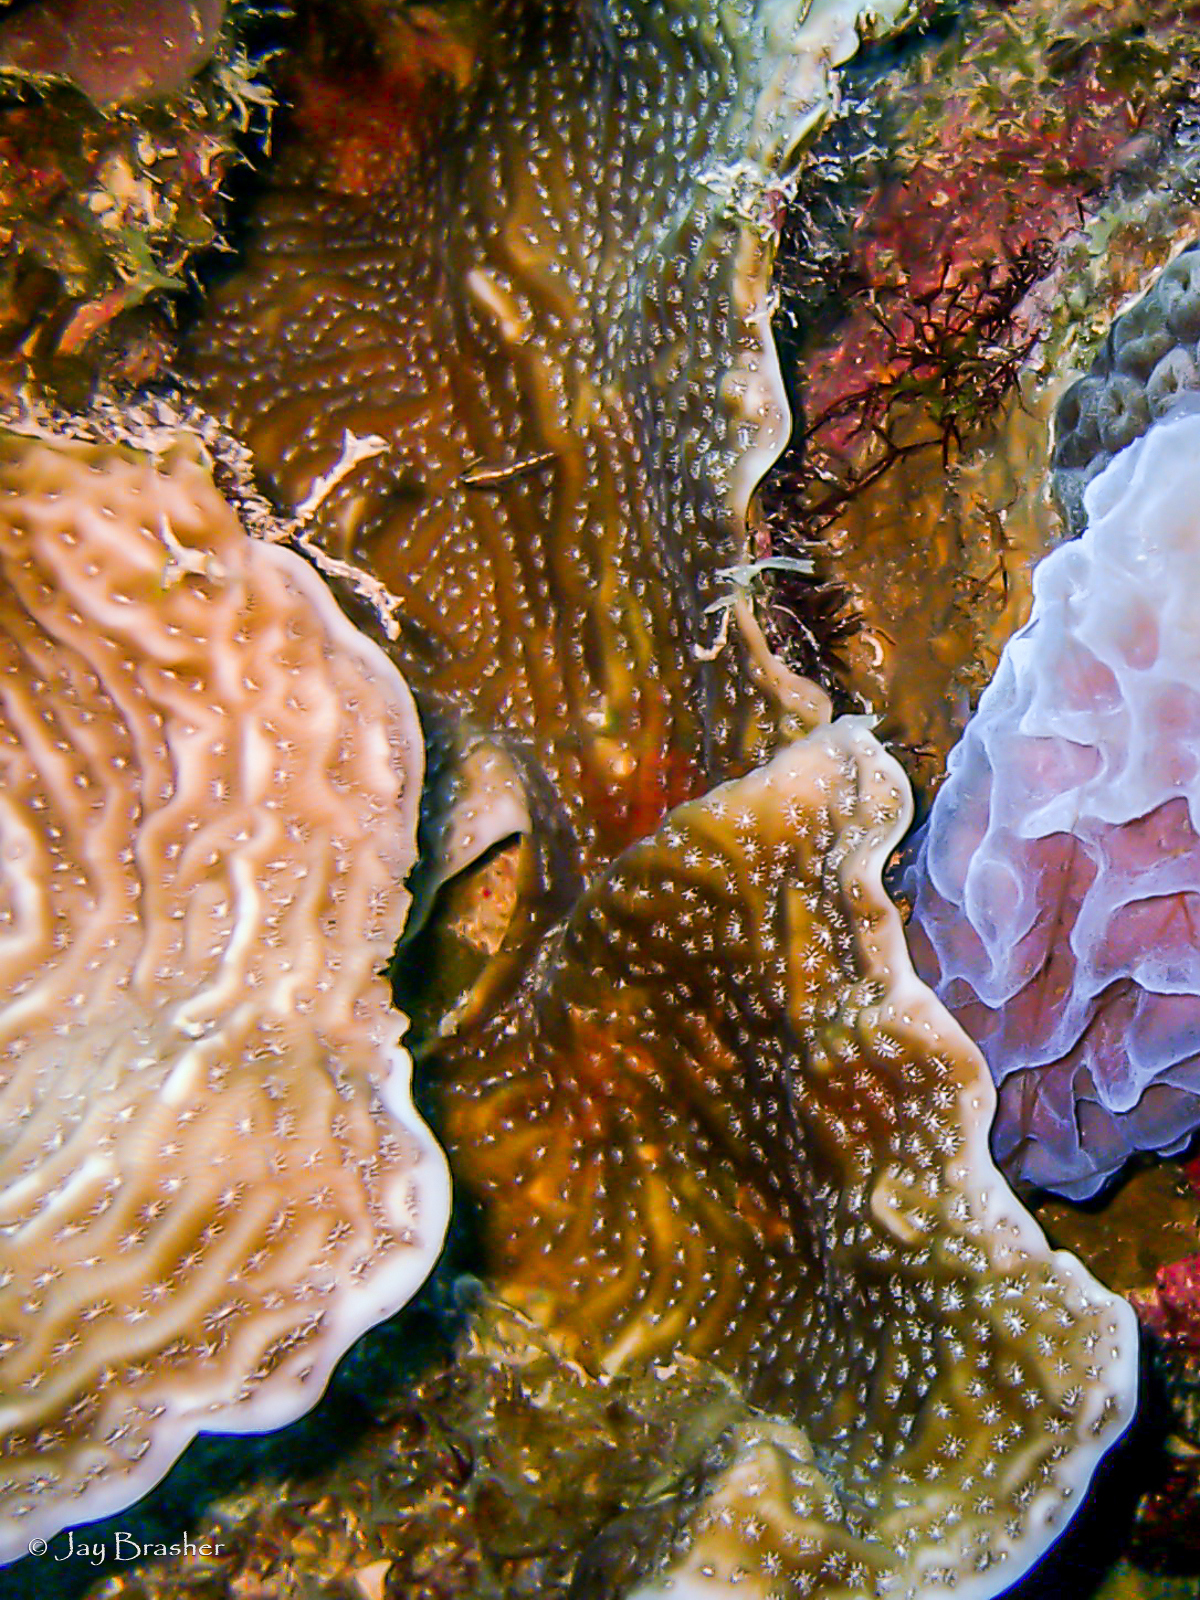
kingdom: Animalia
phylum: Cnidaria
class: Anthozoa
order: Scleractinia
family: Agariciidae
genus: Agaricia
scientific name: Agaricia lamarcki
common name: Lamarck's sheet coral
